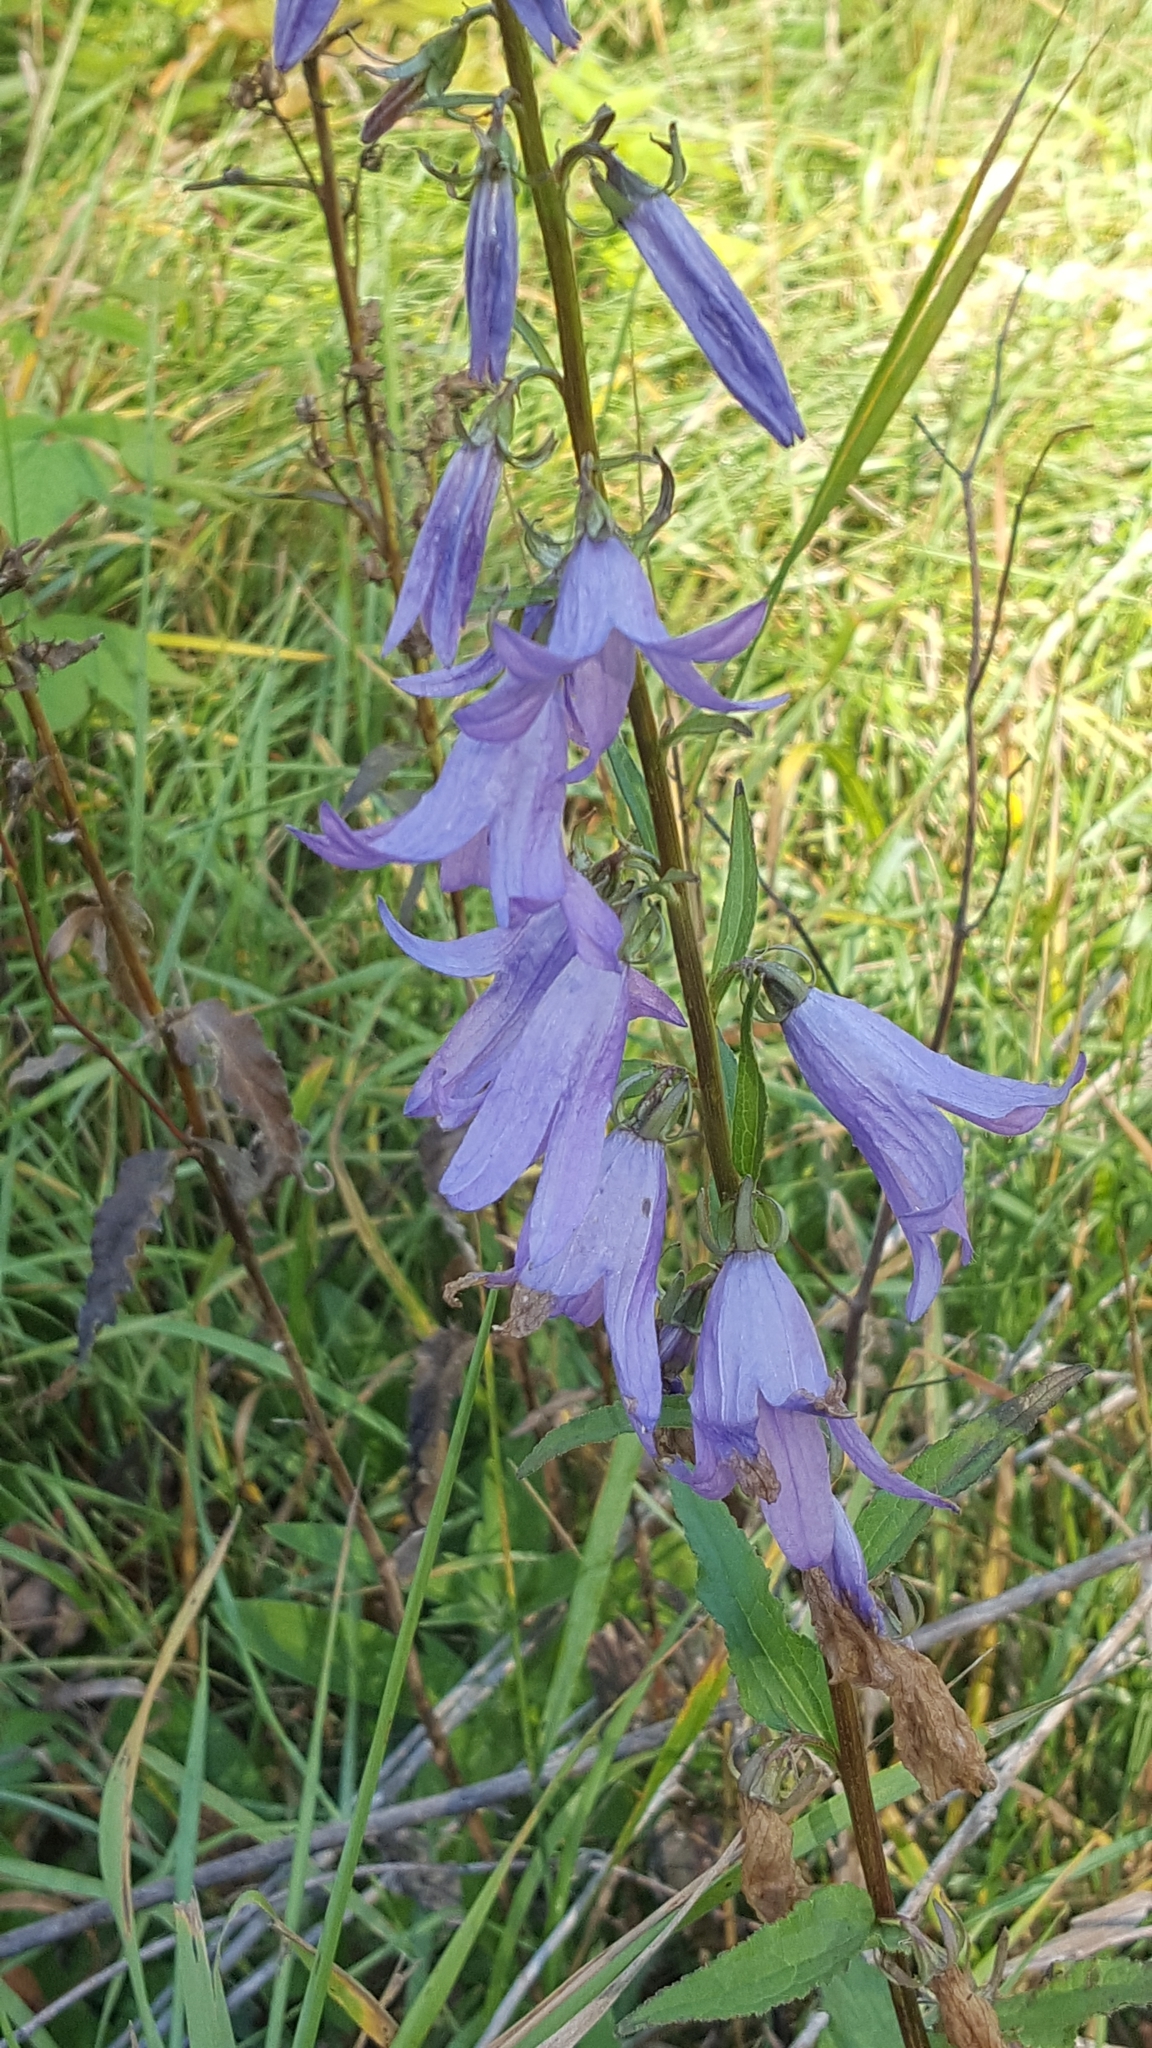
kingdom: Plantae
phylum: Tracheophyta
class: Magnoliopsida
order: Asterales
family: Campanulaceae
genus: Campanula
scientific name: Campanula rapunculoides
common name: Creeping bellflower
